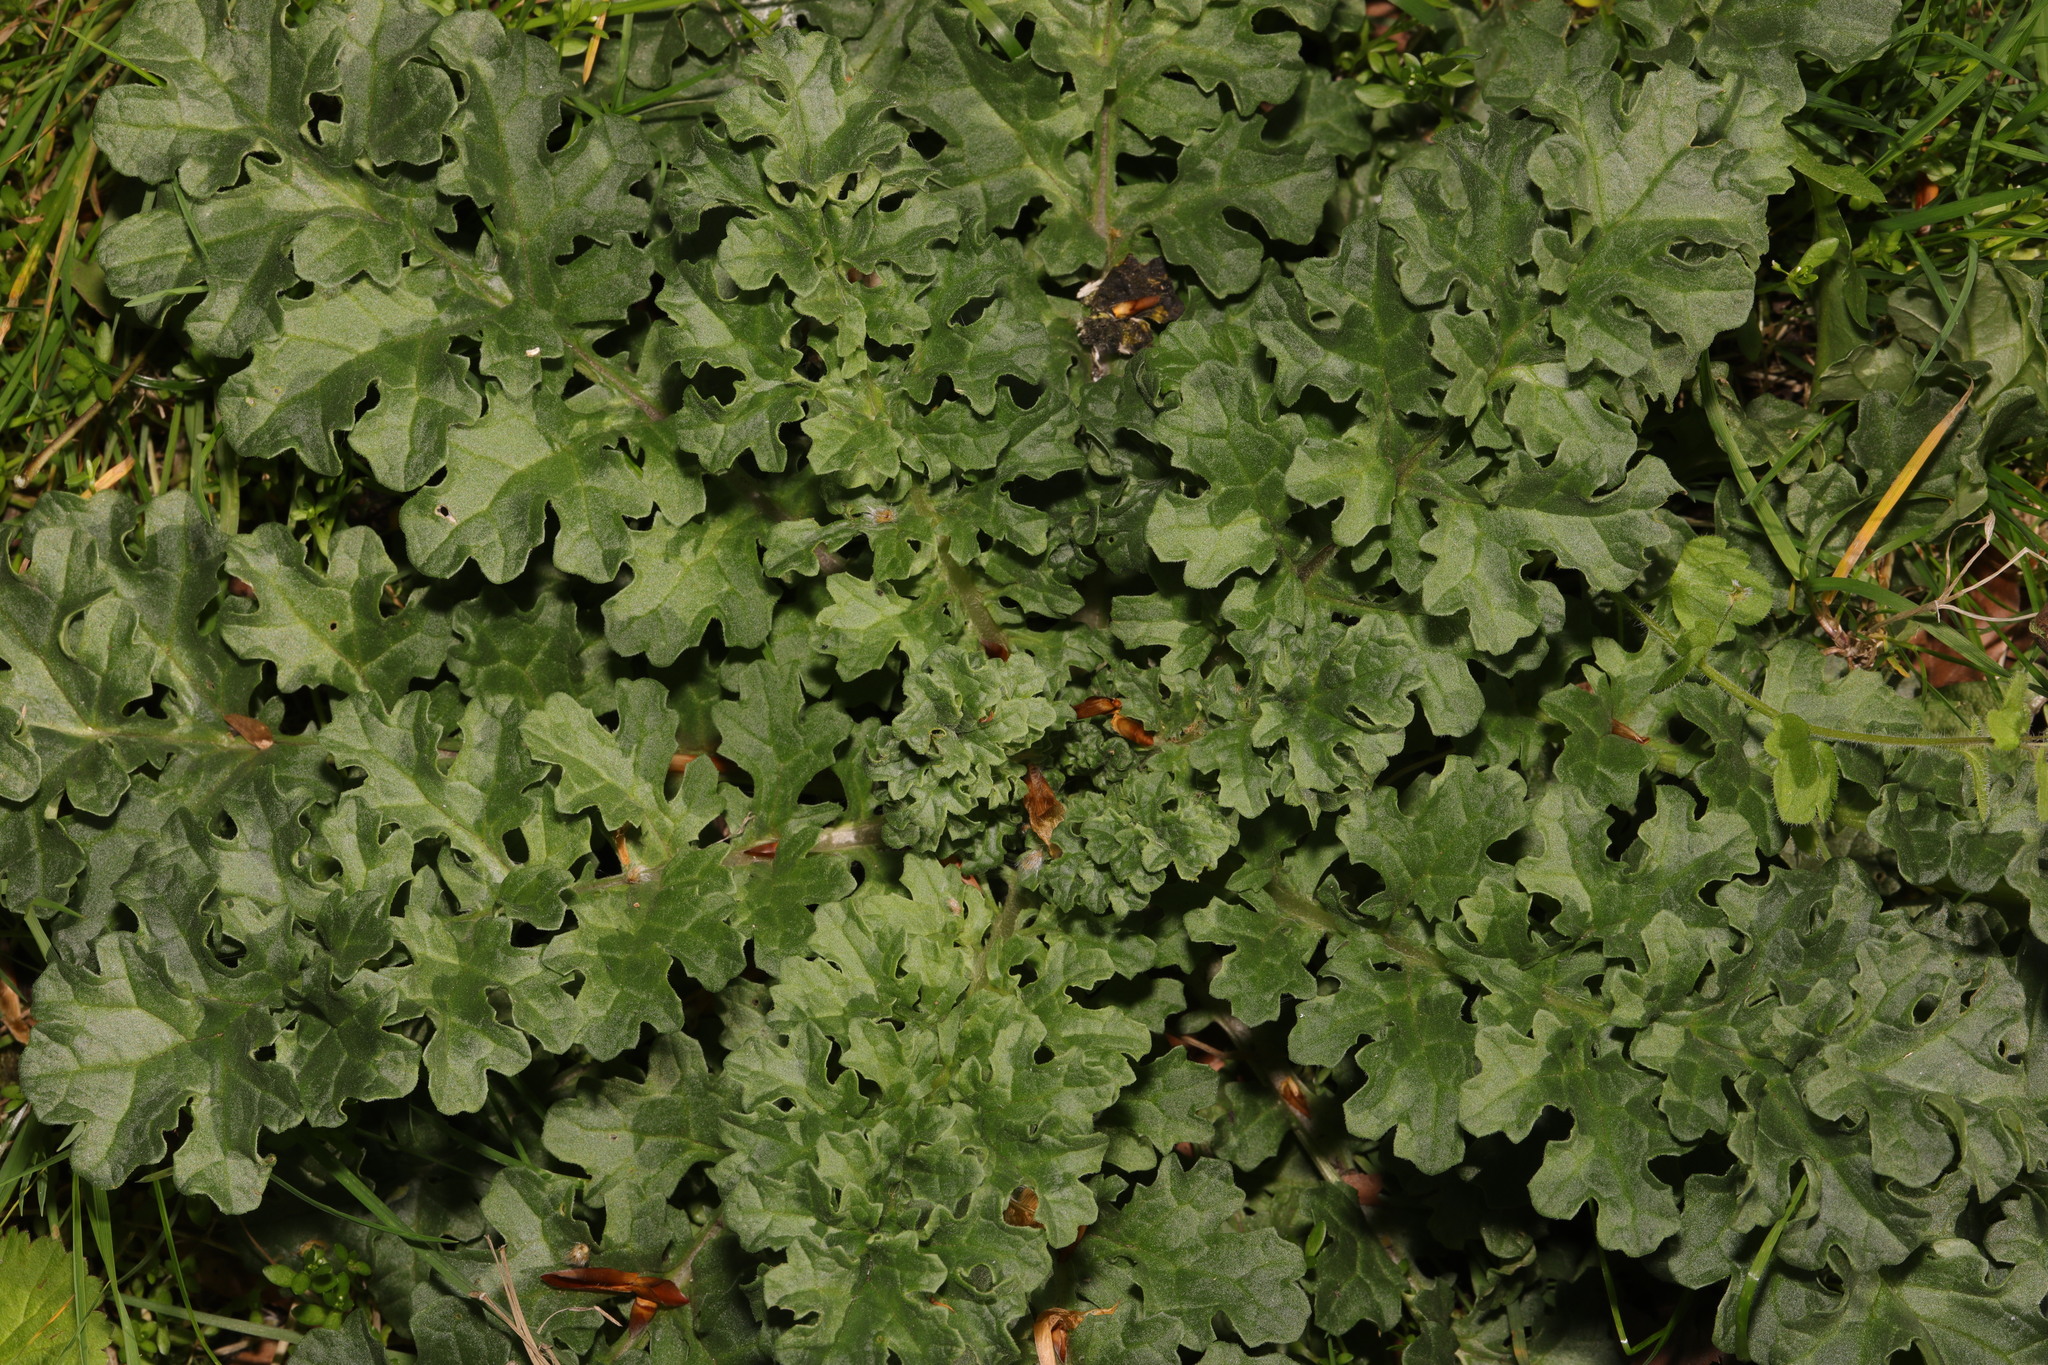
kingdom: Plantae
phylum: Tracheophyta
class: Magnoliopsida
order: Asterales
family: Asteraceae
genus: Jacobaea
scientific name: Jacobaea vulgaris
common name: Stinking willie
